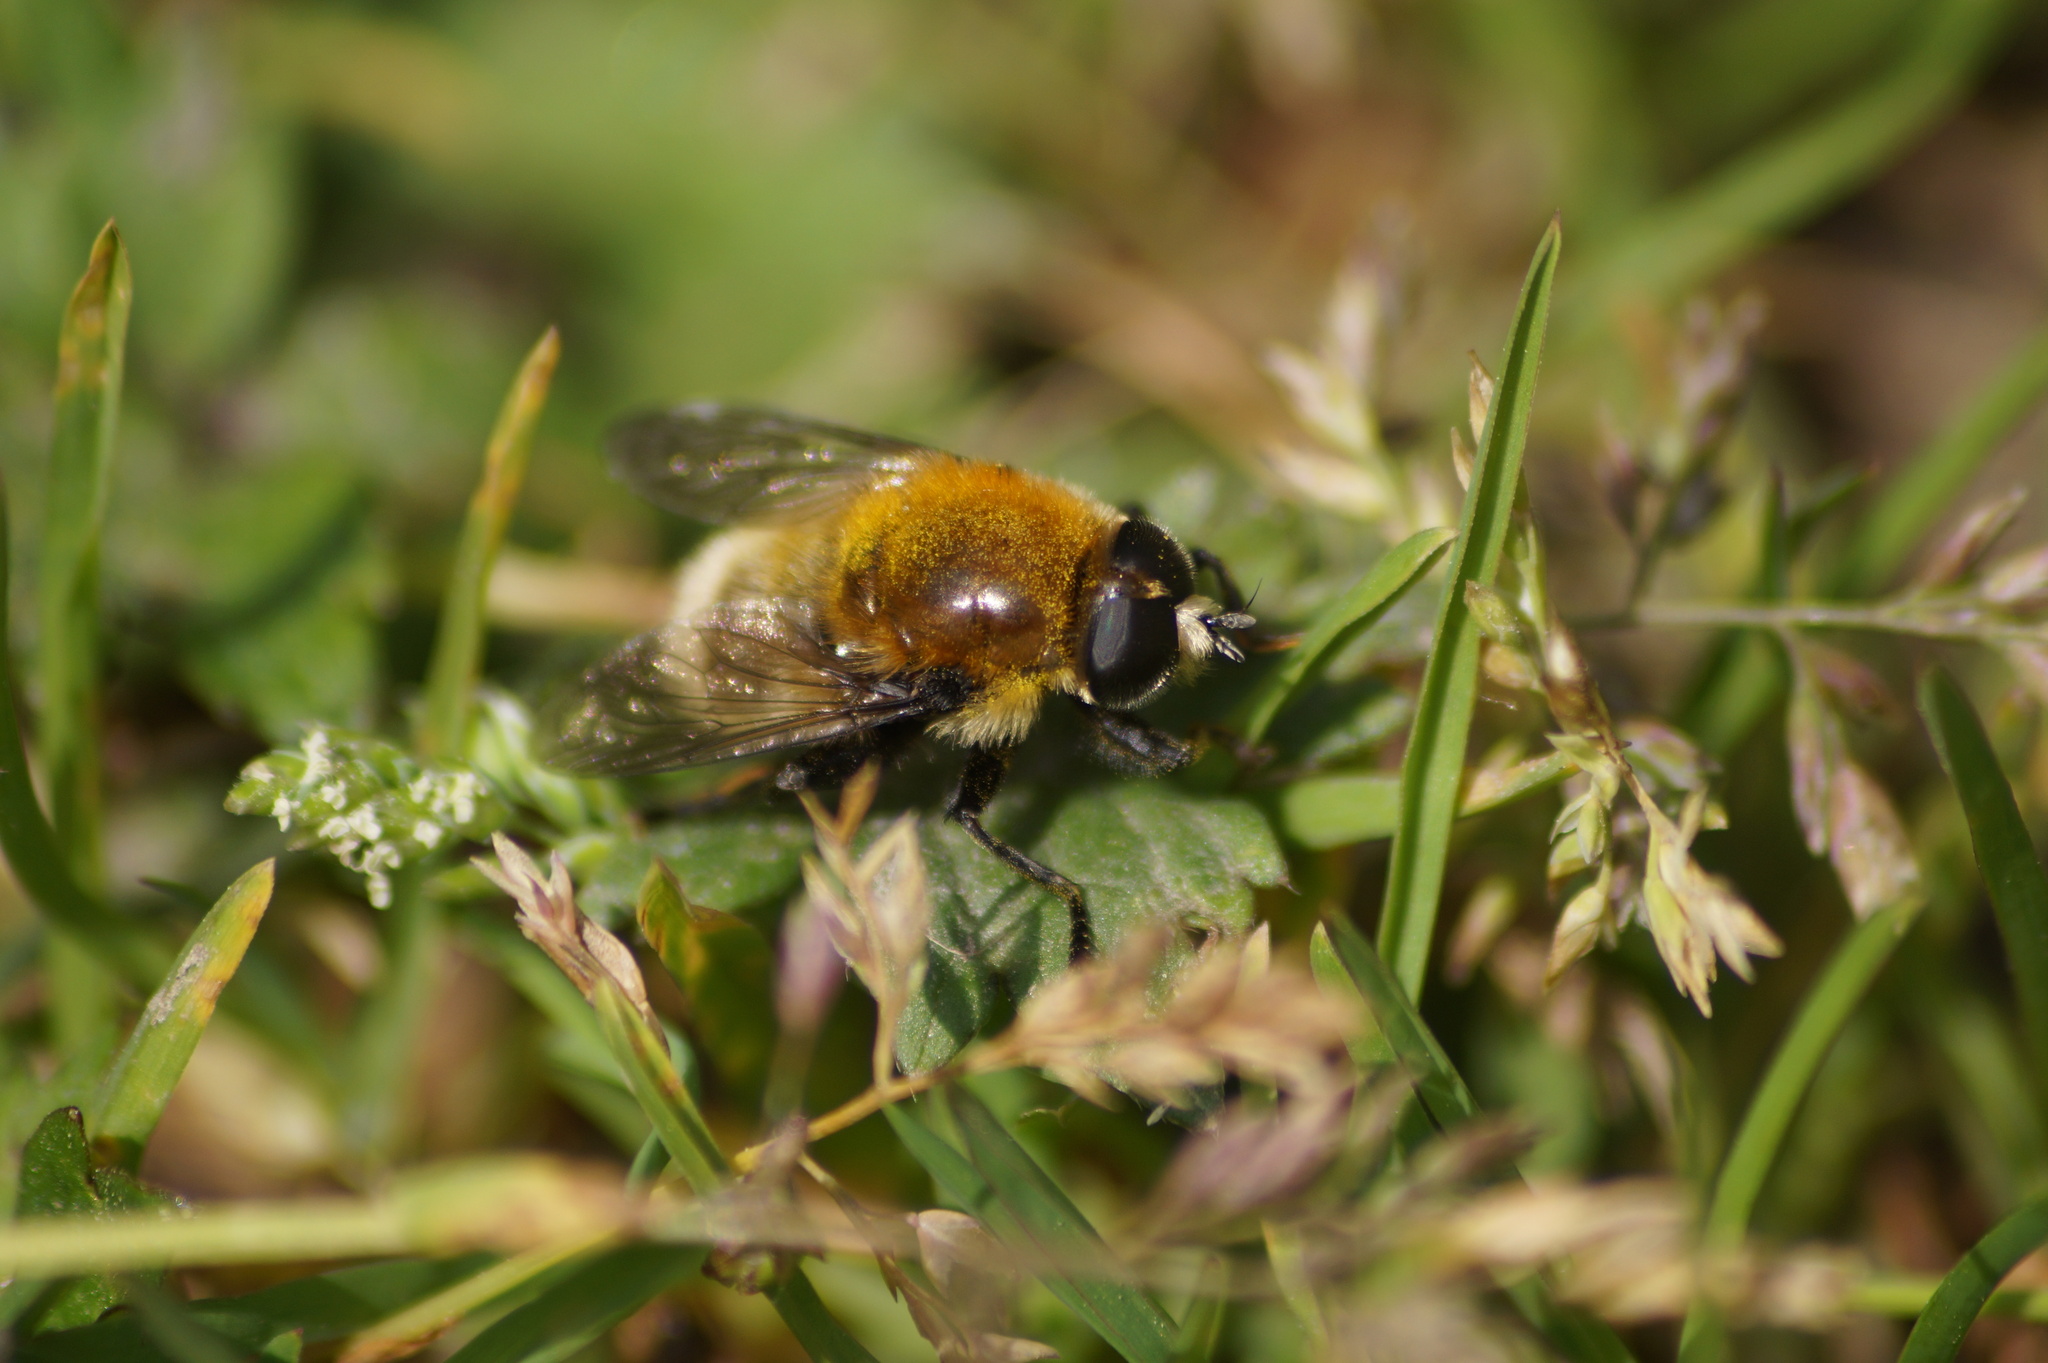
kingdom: Animalia
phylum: Arthropoda
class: Insecta
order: Diptera
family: Syrphidae
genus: Merodon
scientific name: Merodon equestris
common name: Greater bulb-fly
